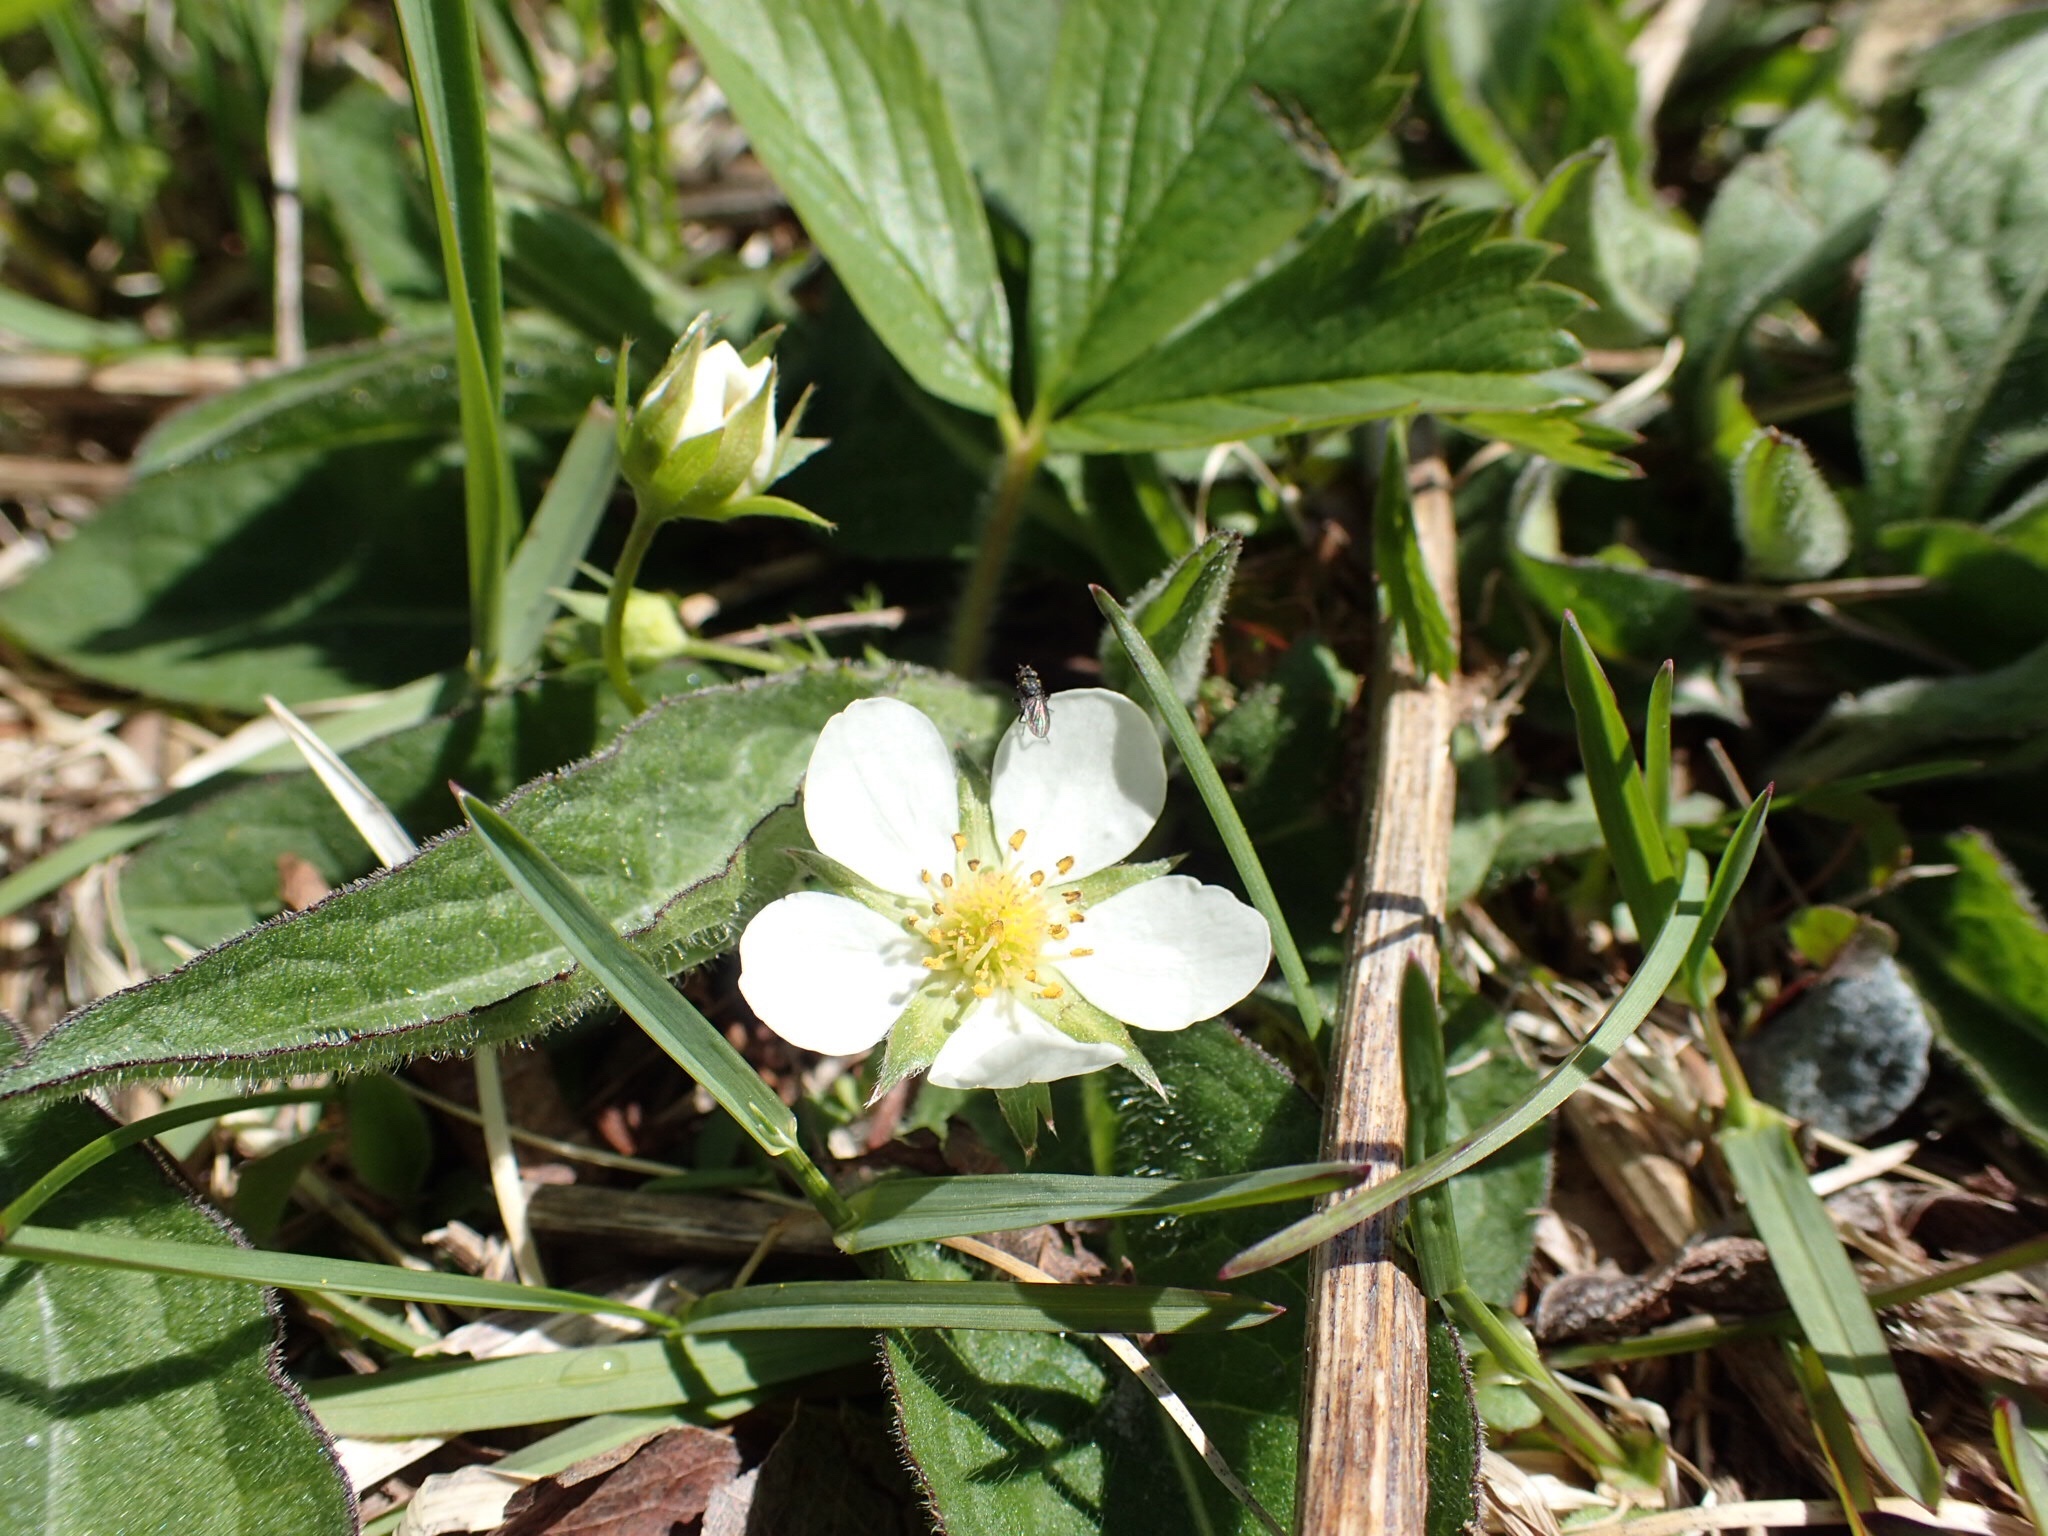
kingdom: Plantae
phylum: Tracheophyta
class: Magnoliopsida
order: Rosales
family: Rosaceae
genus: Fragaria
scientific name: Fragaria virginiana
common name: Thickleaved wild strawberry
